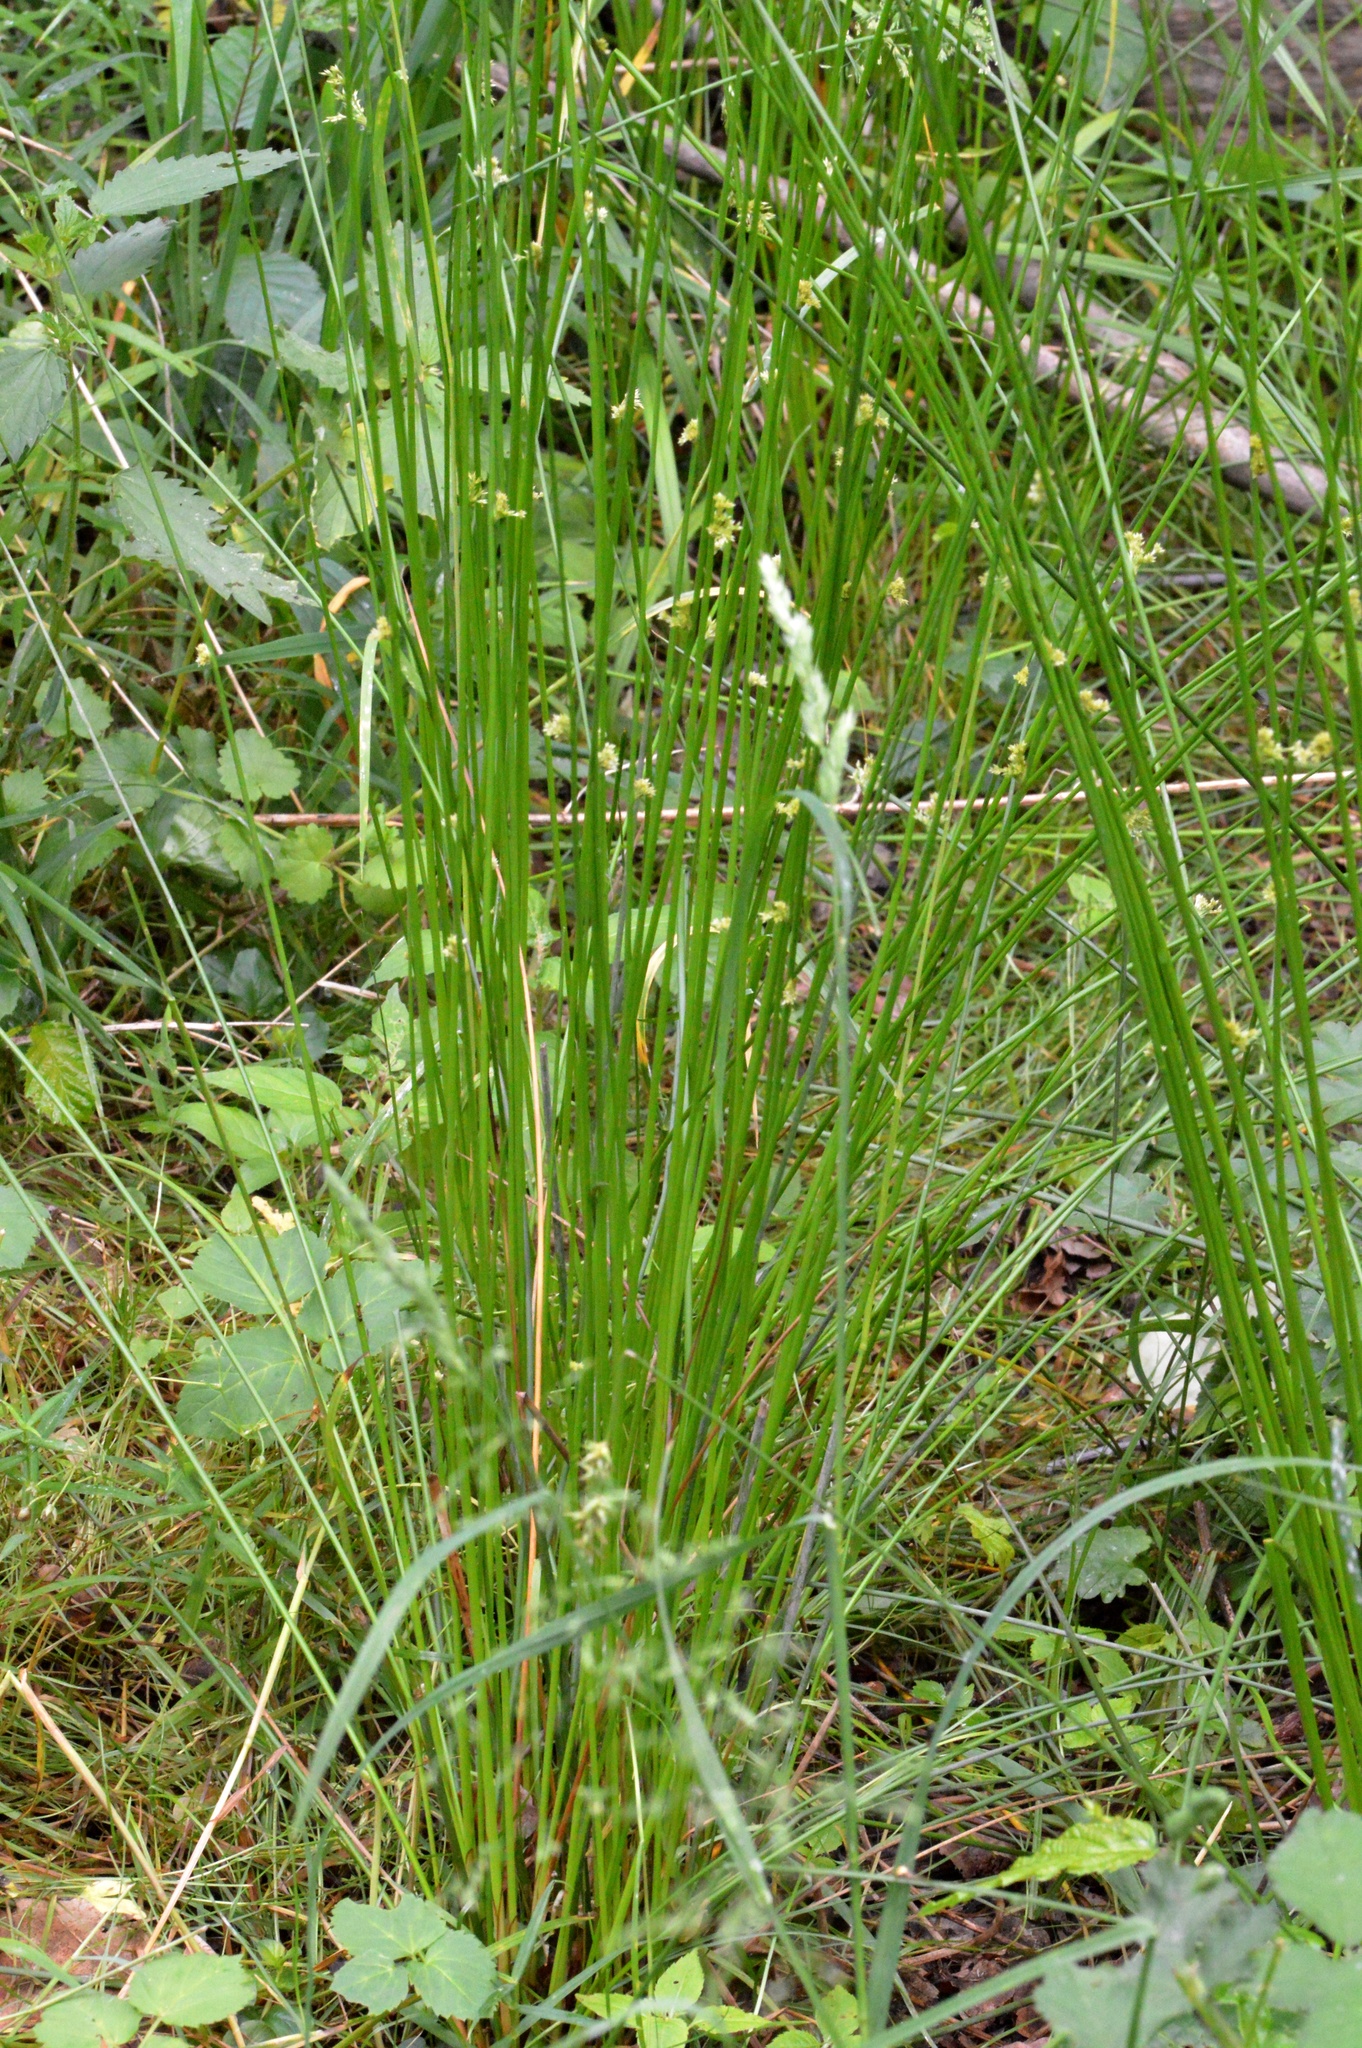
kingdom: Plantae
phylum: Tracheophyta
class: Liliopsida
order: Poales
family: Juncaceae
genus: Juncus
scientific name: Juncus effusus
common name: Soft rush
